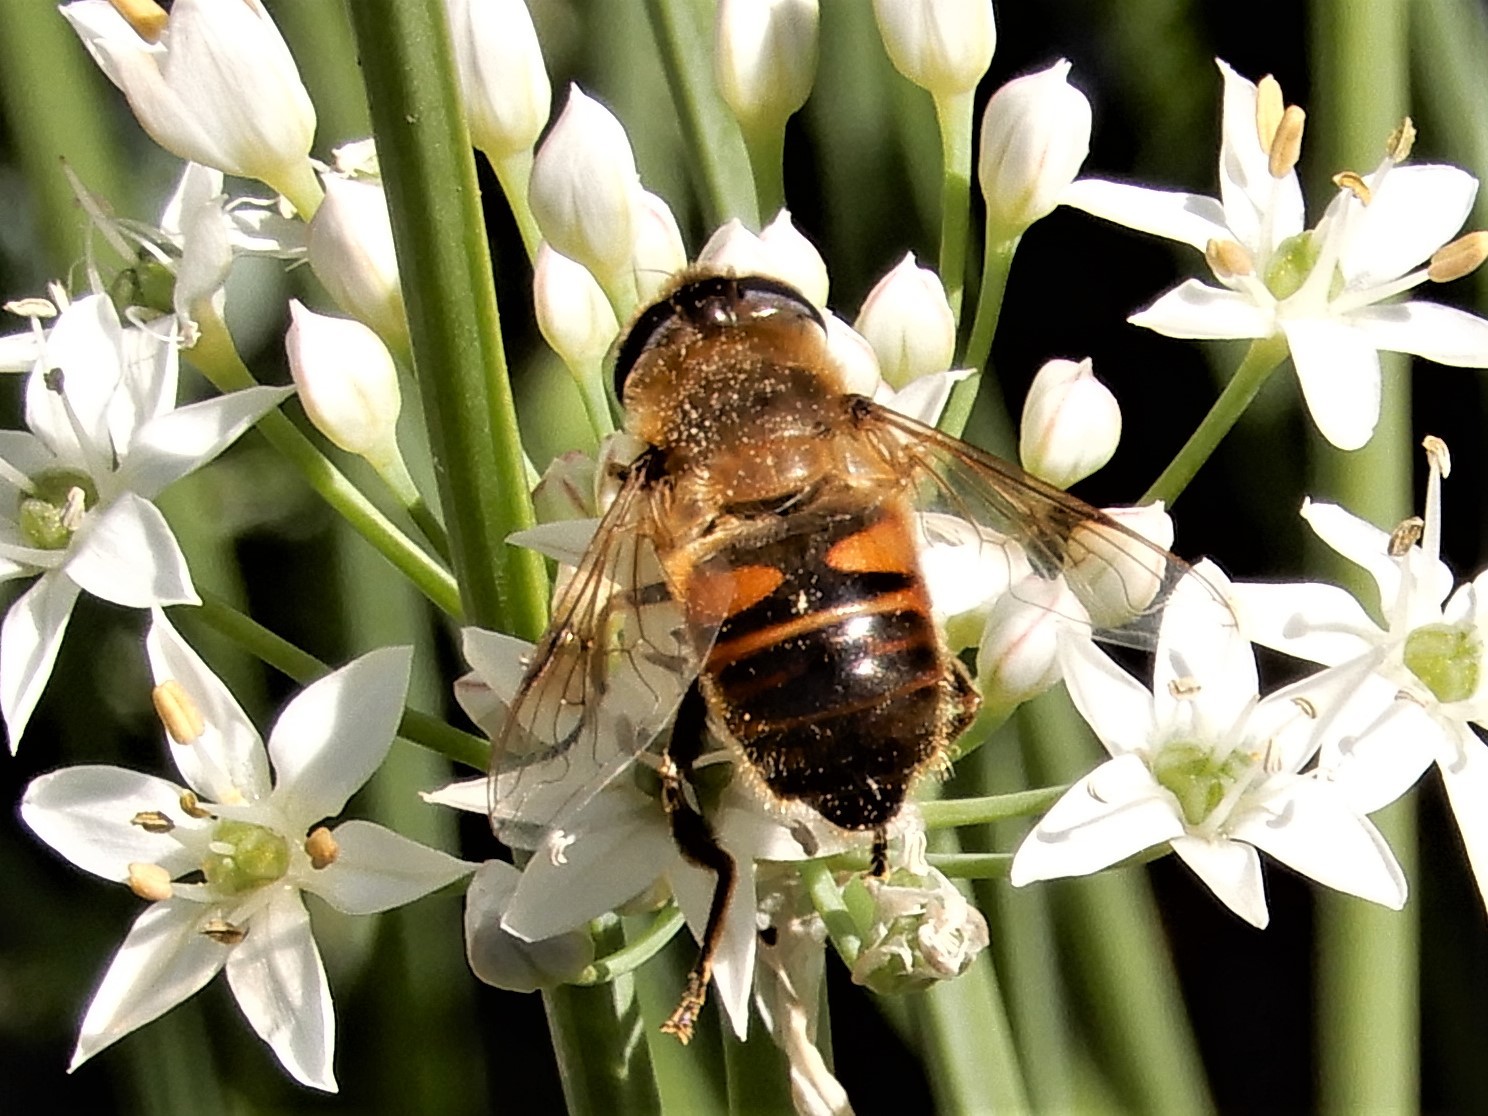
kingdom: Animalia
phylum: Arthropoda
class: Insecta
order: Diptera
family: Syrphidae
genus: Eristalis
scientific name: Eristalis tenax
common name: Drone fly
